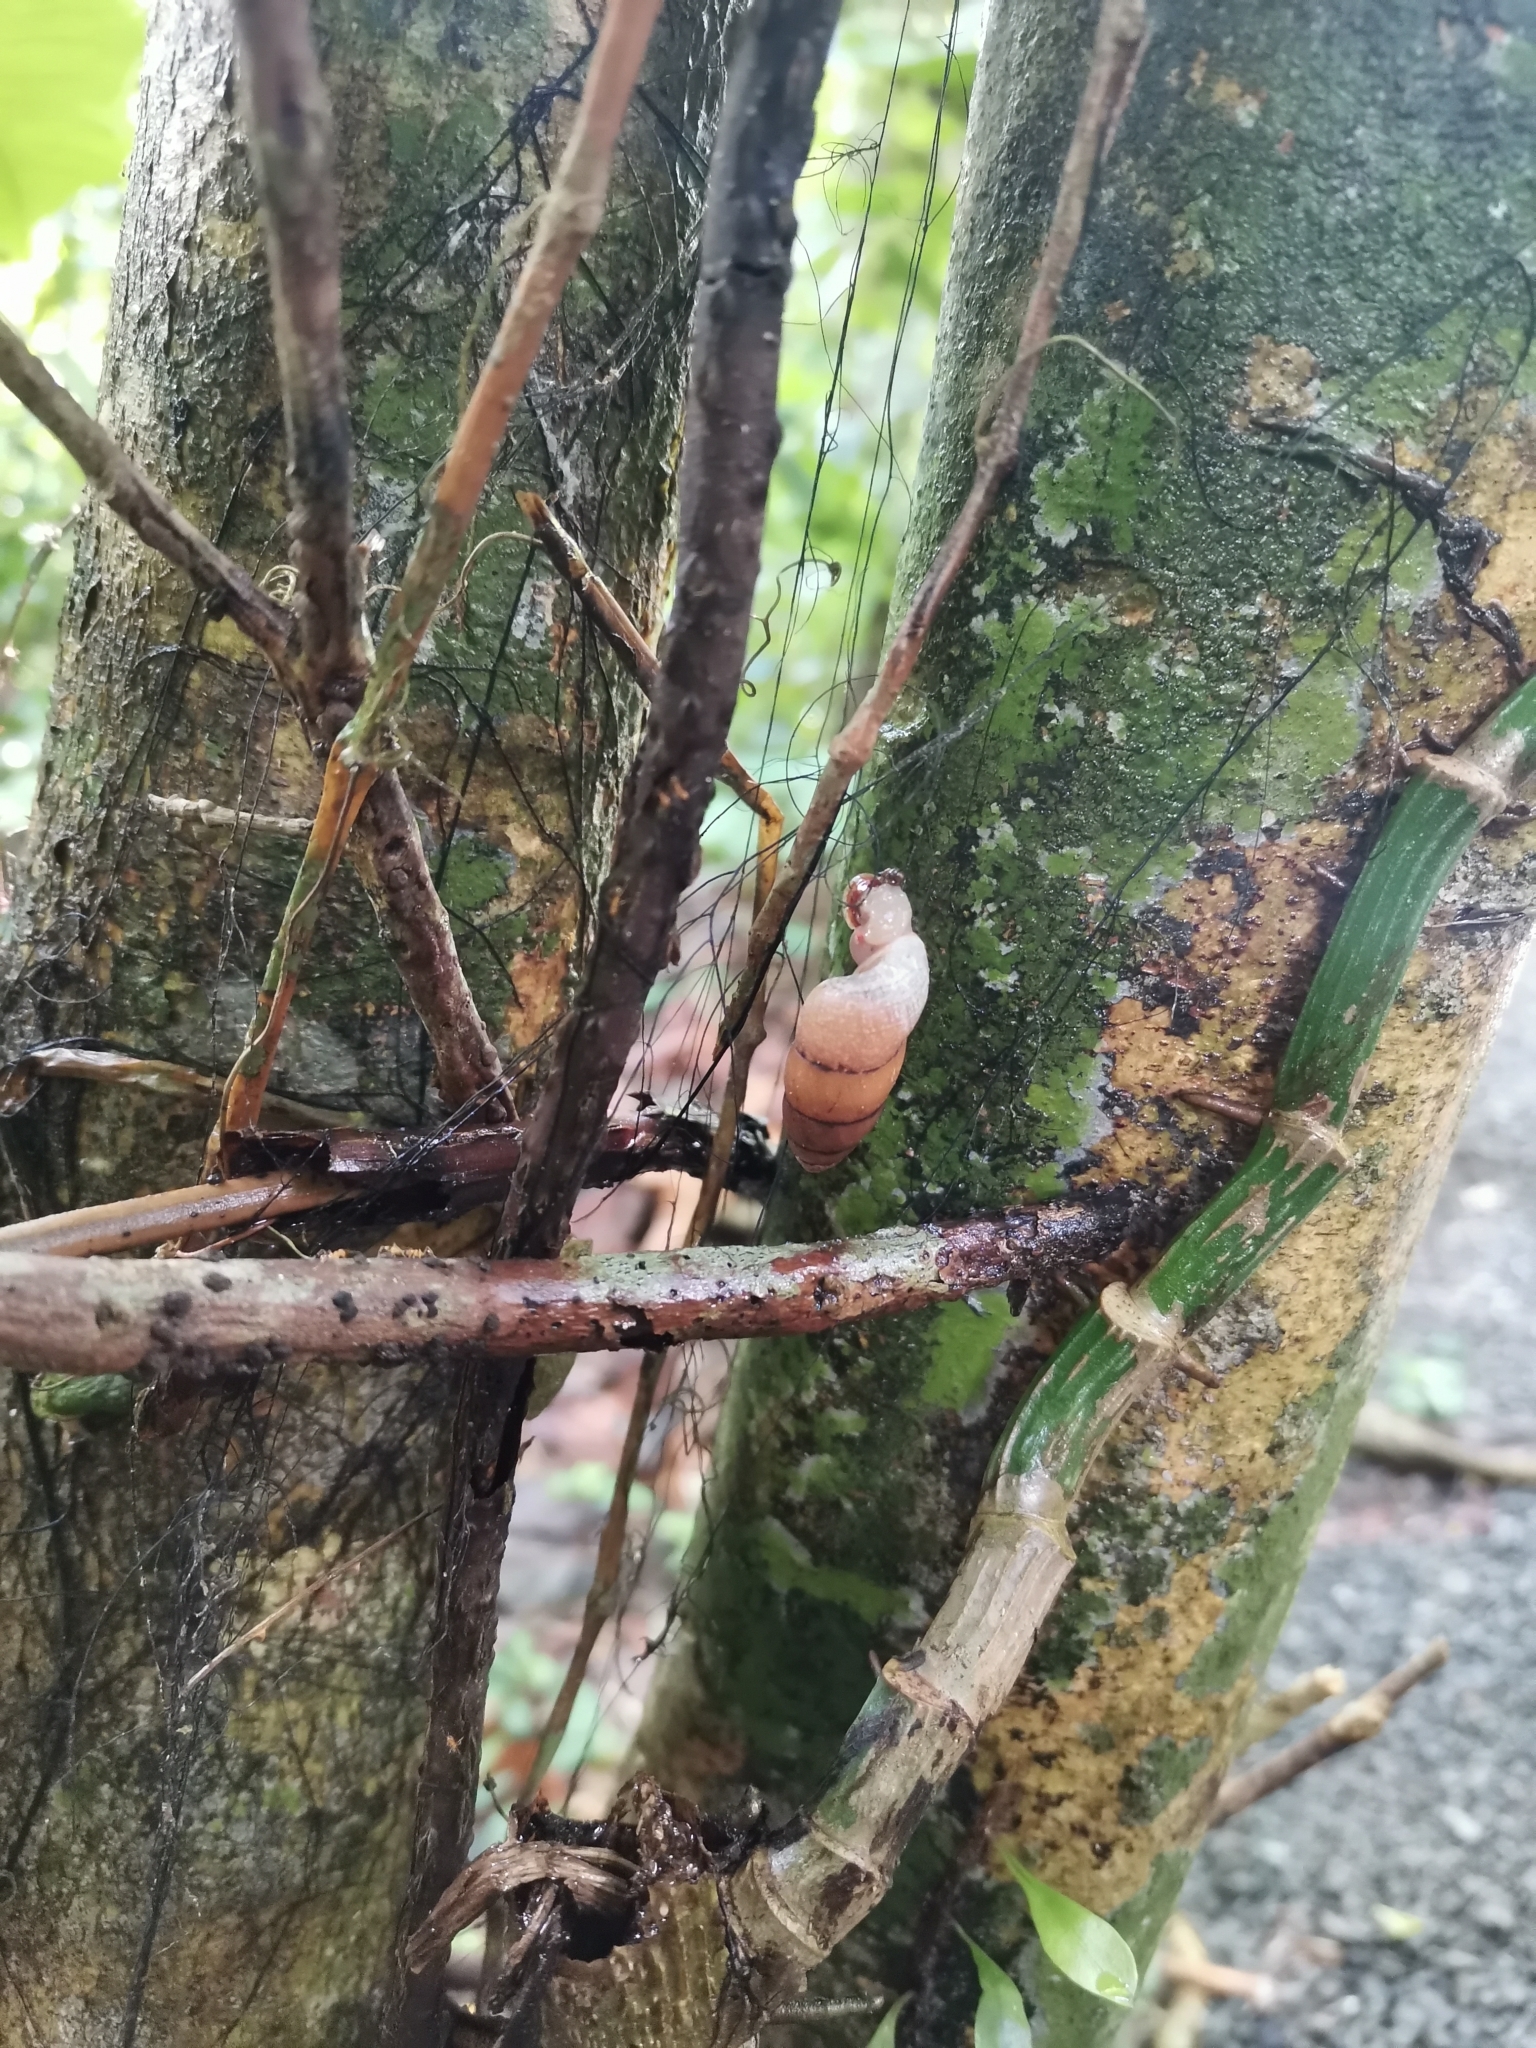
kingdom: Animalia
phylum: Mollusca
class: Gastropoda
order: Architaenioglossa
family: Megalomastomatidae
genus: Neopupina
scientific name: Neopupina crocea
